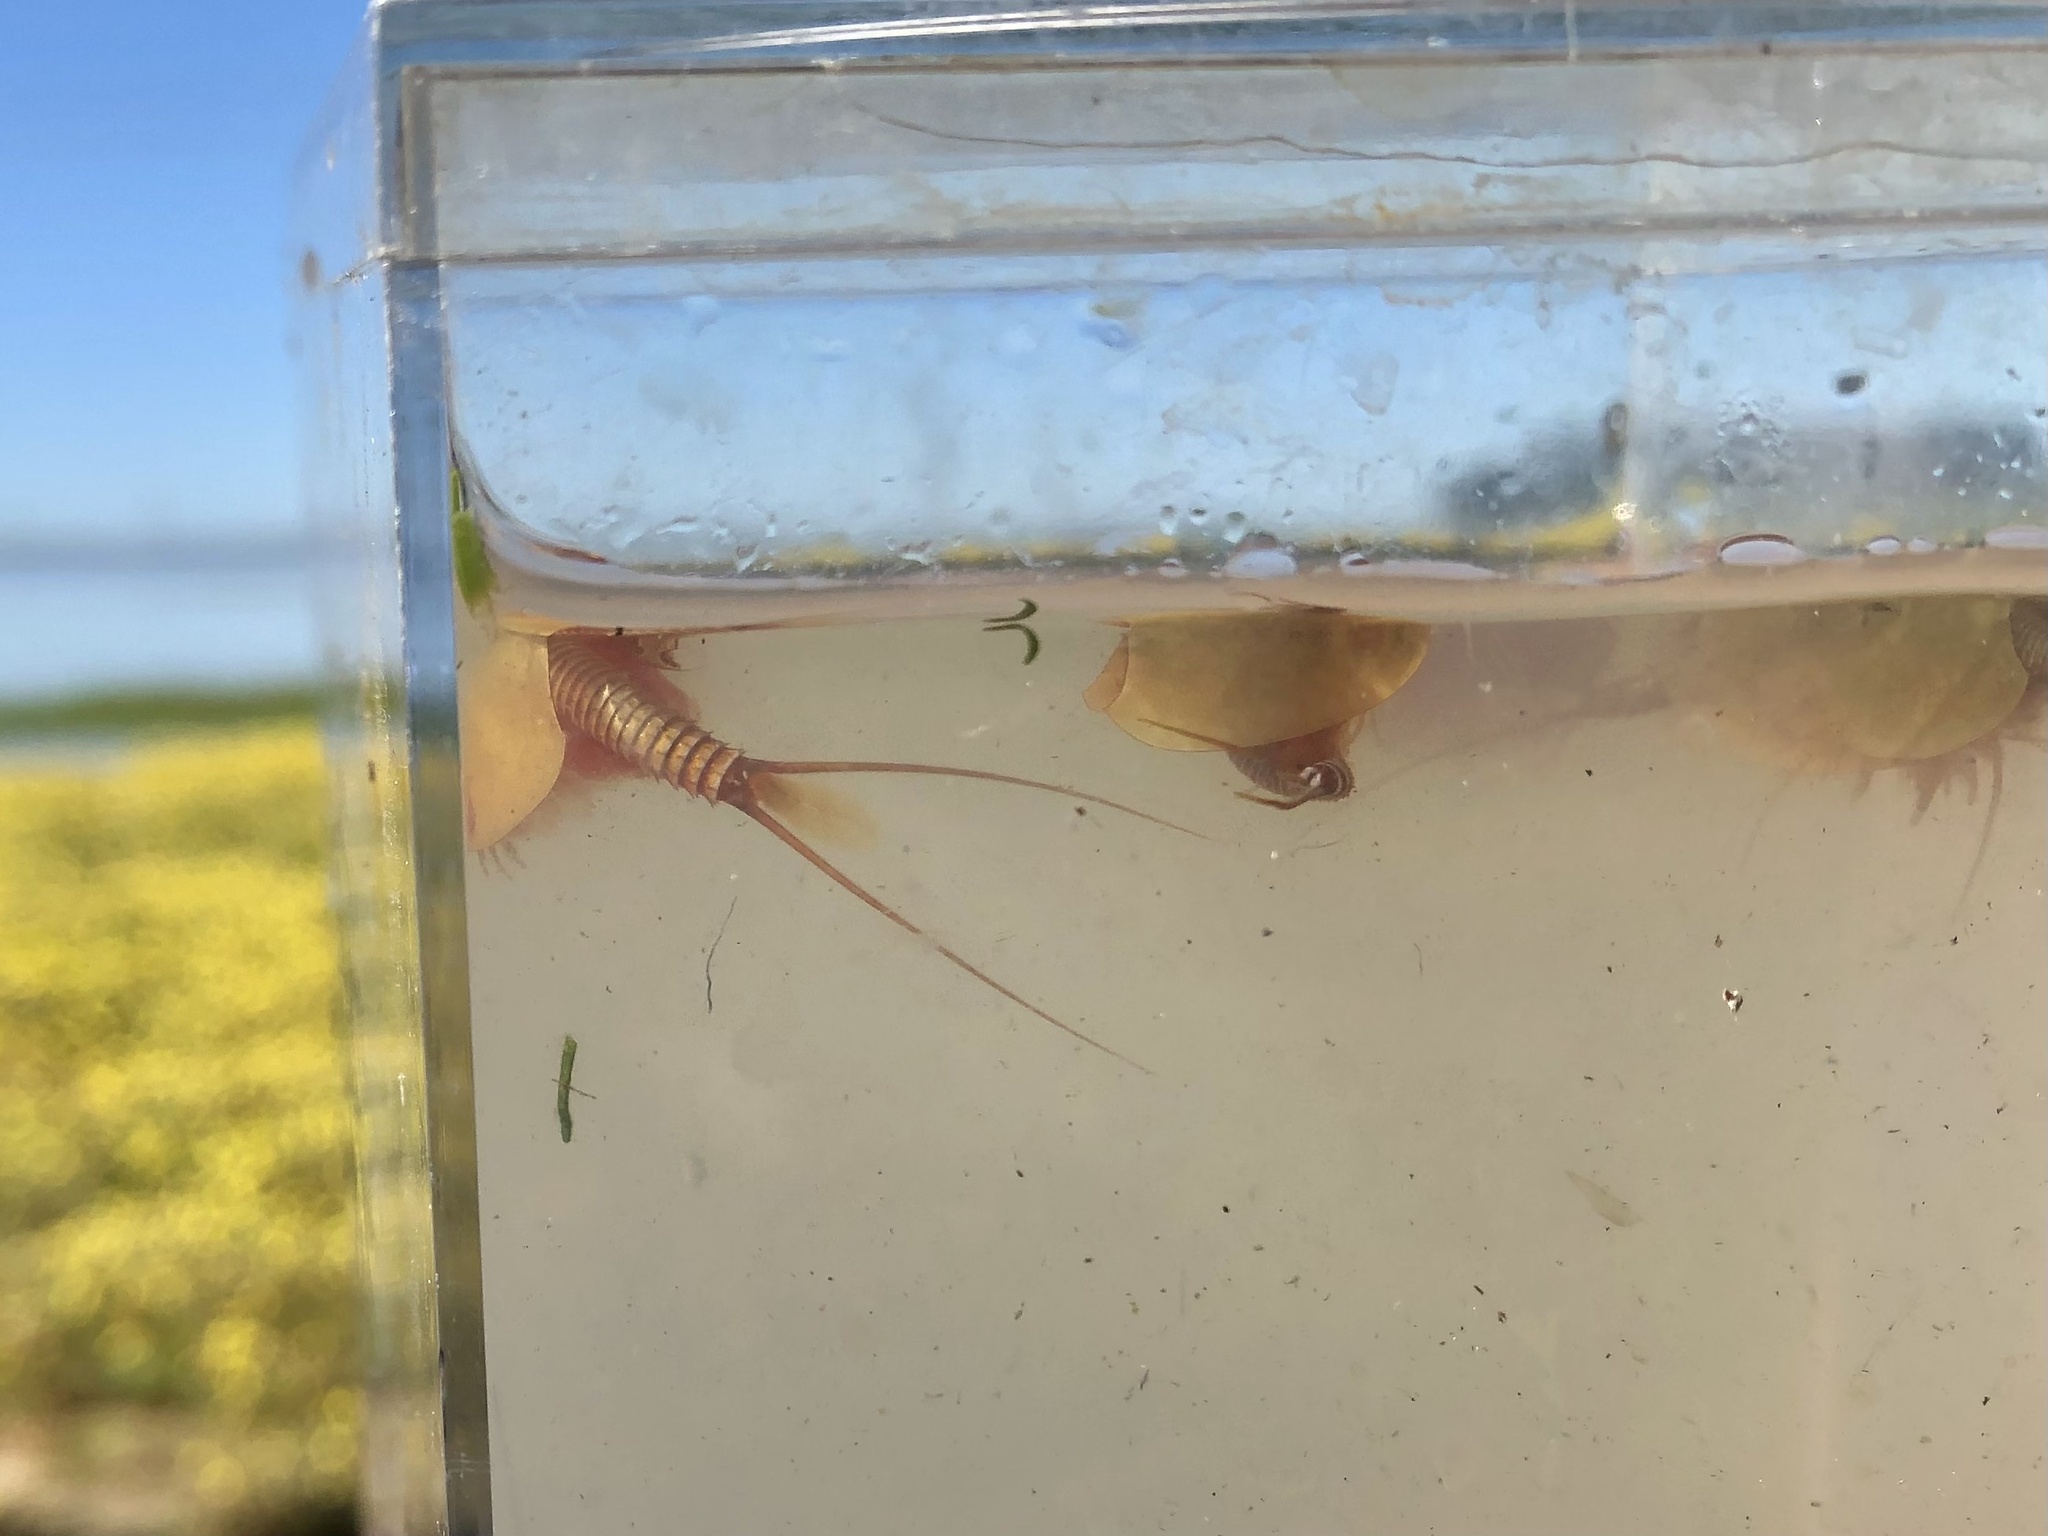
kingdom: Animalia
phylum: Arthropoda
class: Branchiopoda
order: Notostraca
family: Triopsidae
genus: Lepidurus
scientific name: Lepidurus packardi
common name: Vernal pool tadpole shrimp
